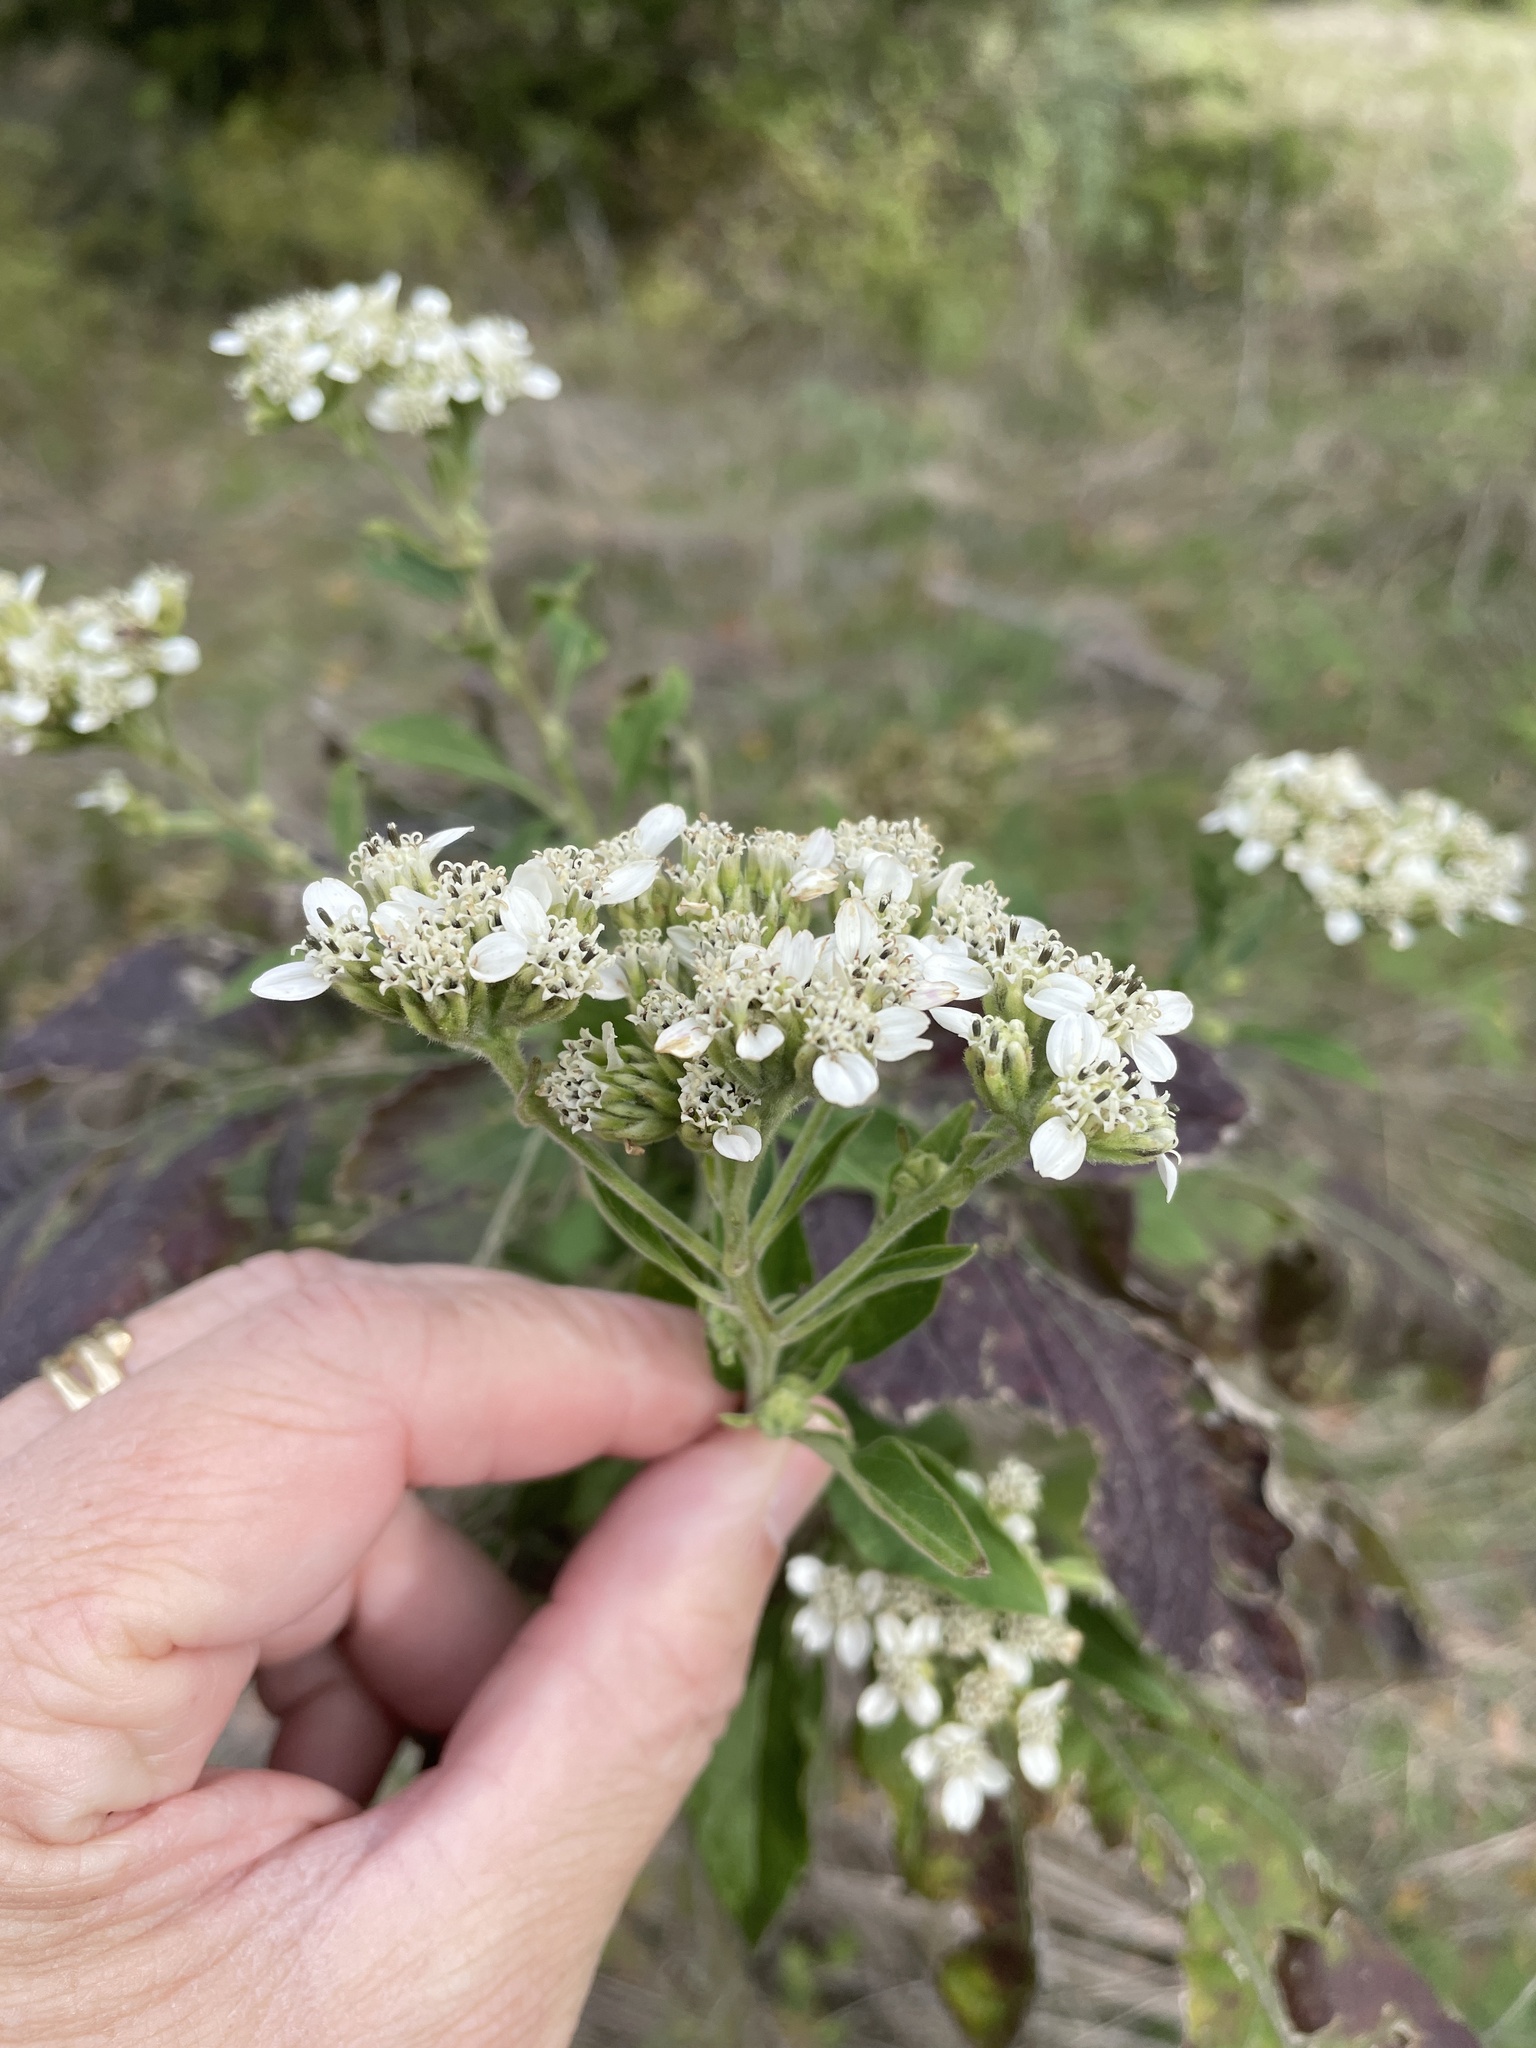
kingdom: Plantae
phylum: Tracheophyta
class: Magnoliopsida
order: Asterales
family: Asteraceae
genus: Verbesina
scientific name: Verbesina virginica
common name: Frostweed
